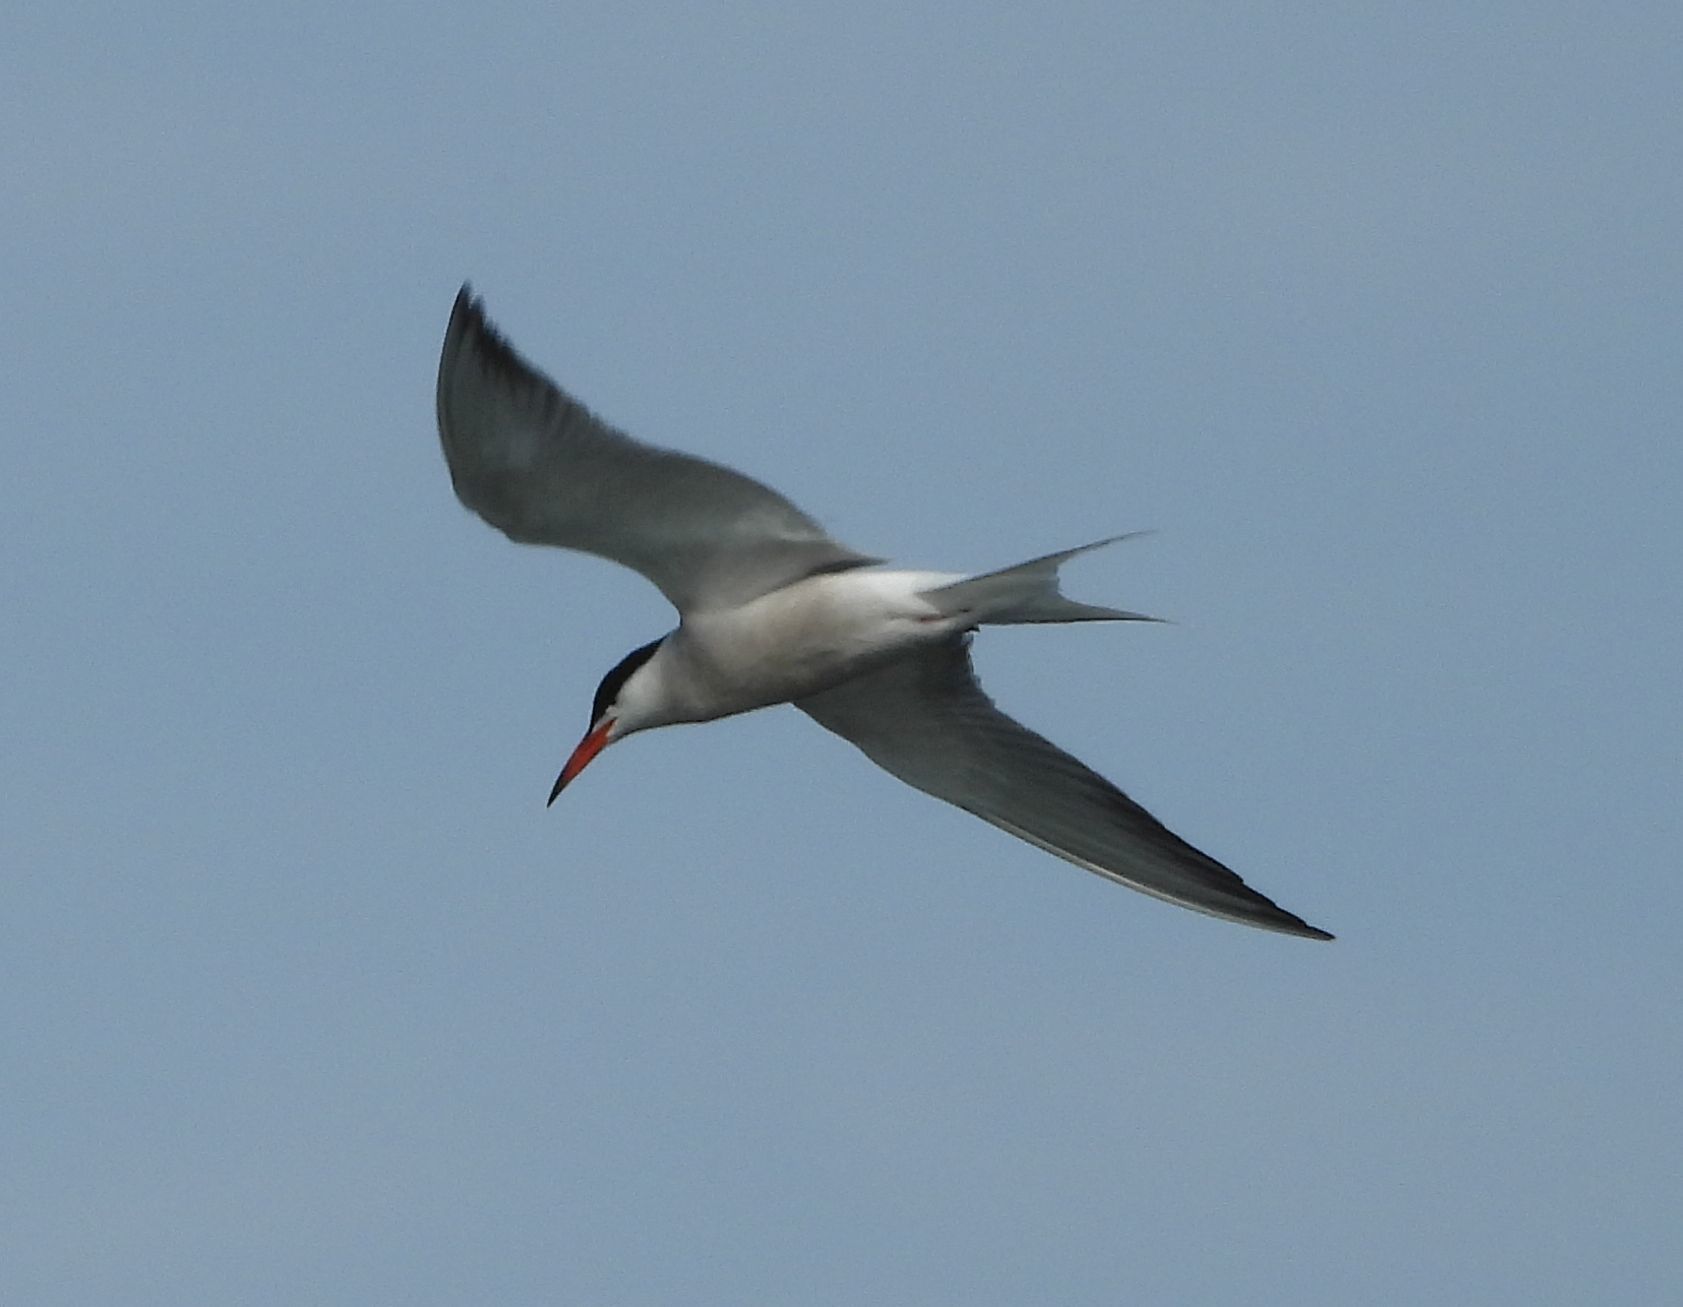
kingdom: Animalia
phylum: Chordata
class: Aves
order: Charadriiformes
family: Laridae
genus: Sterna
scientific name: Sterna hirundo
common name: Common tern
